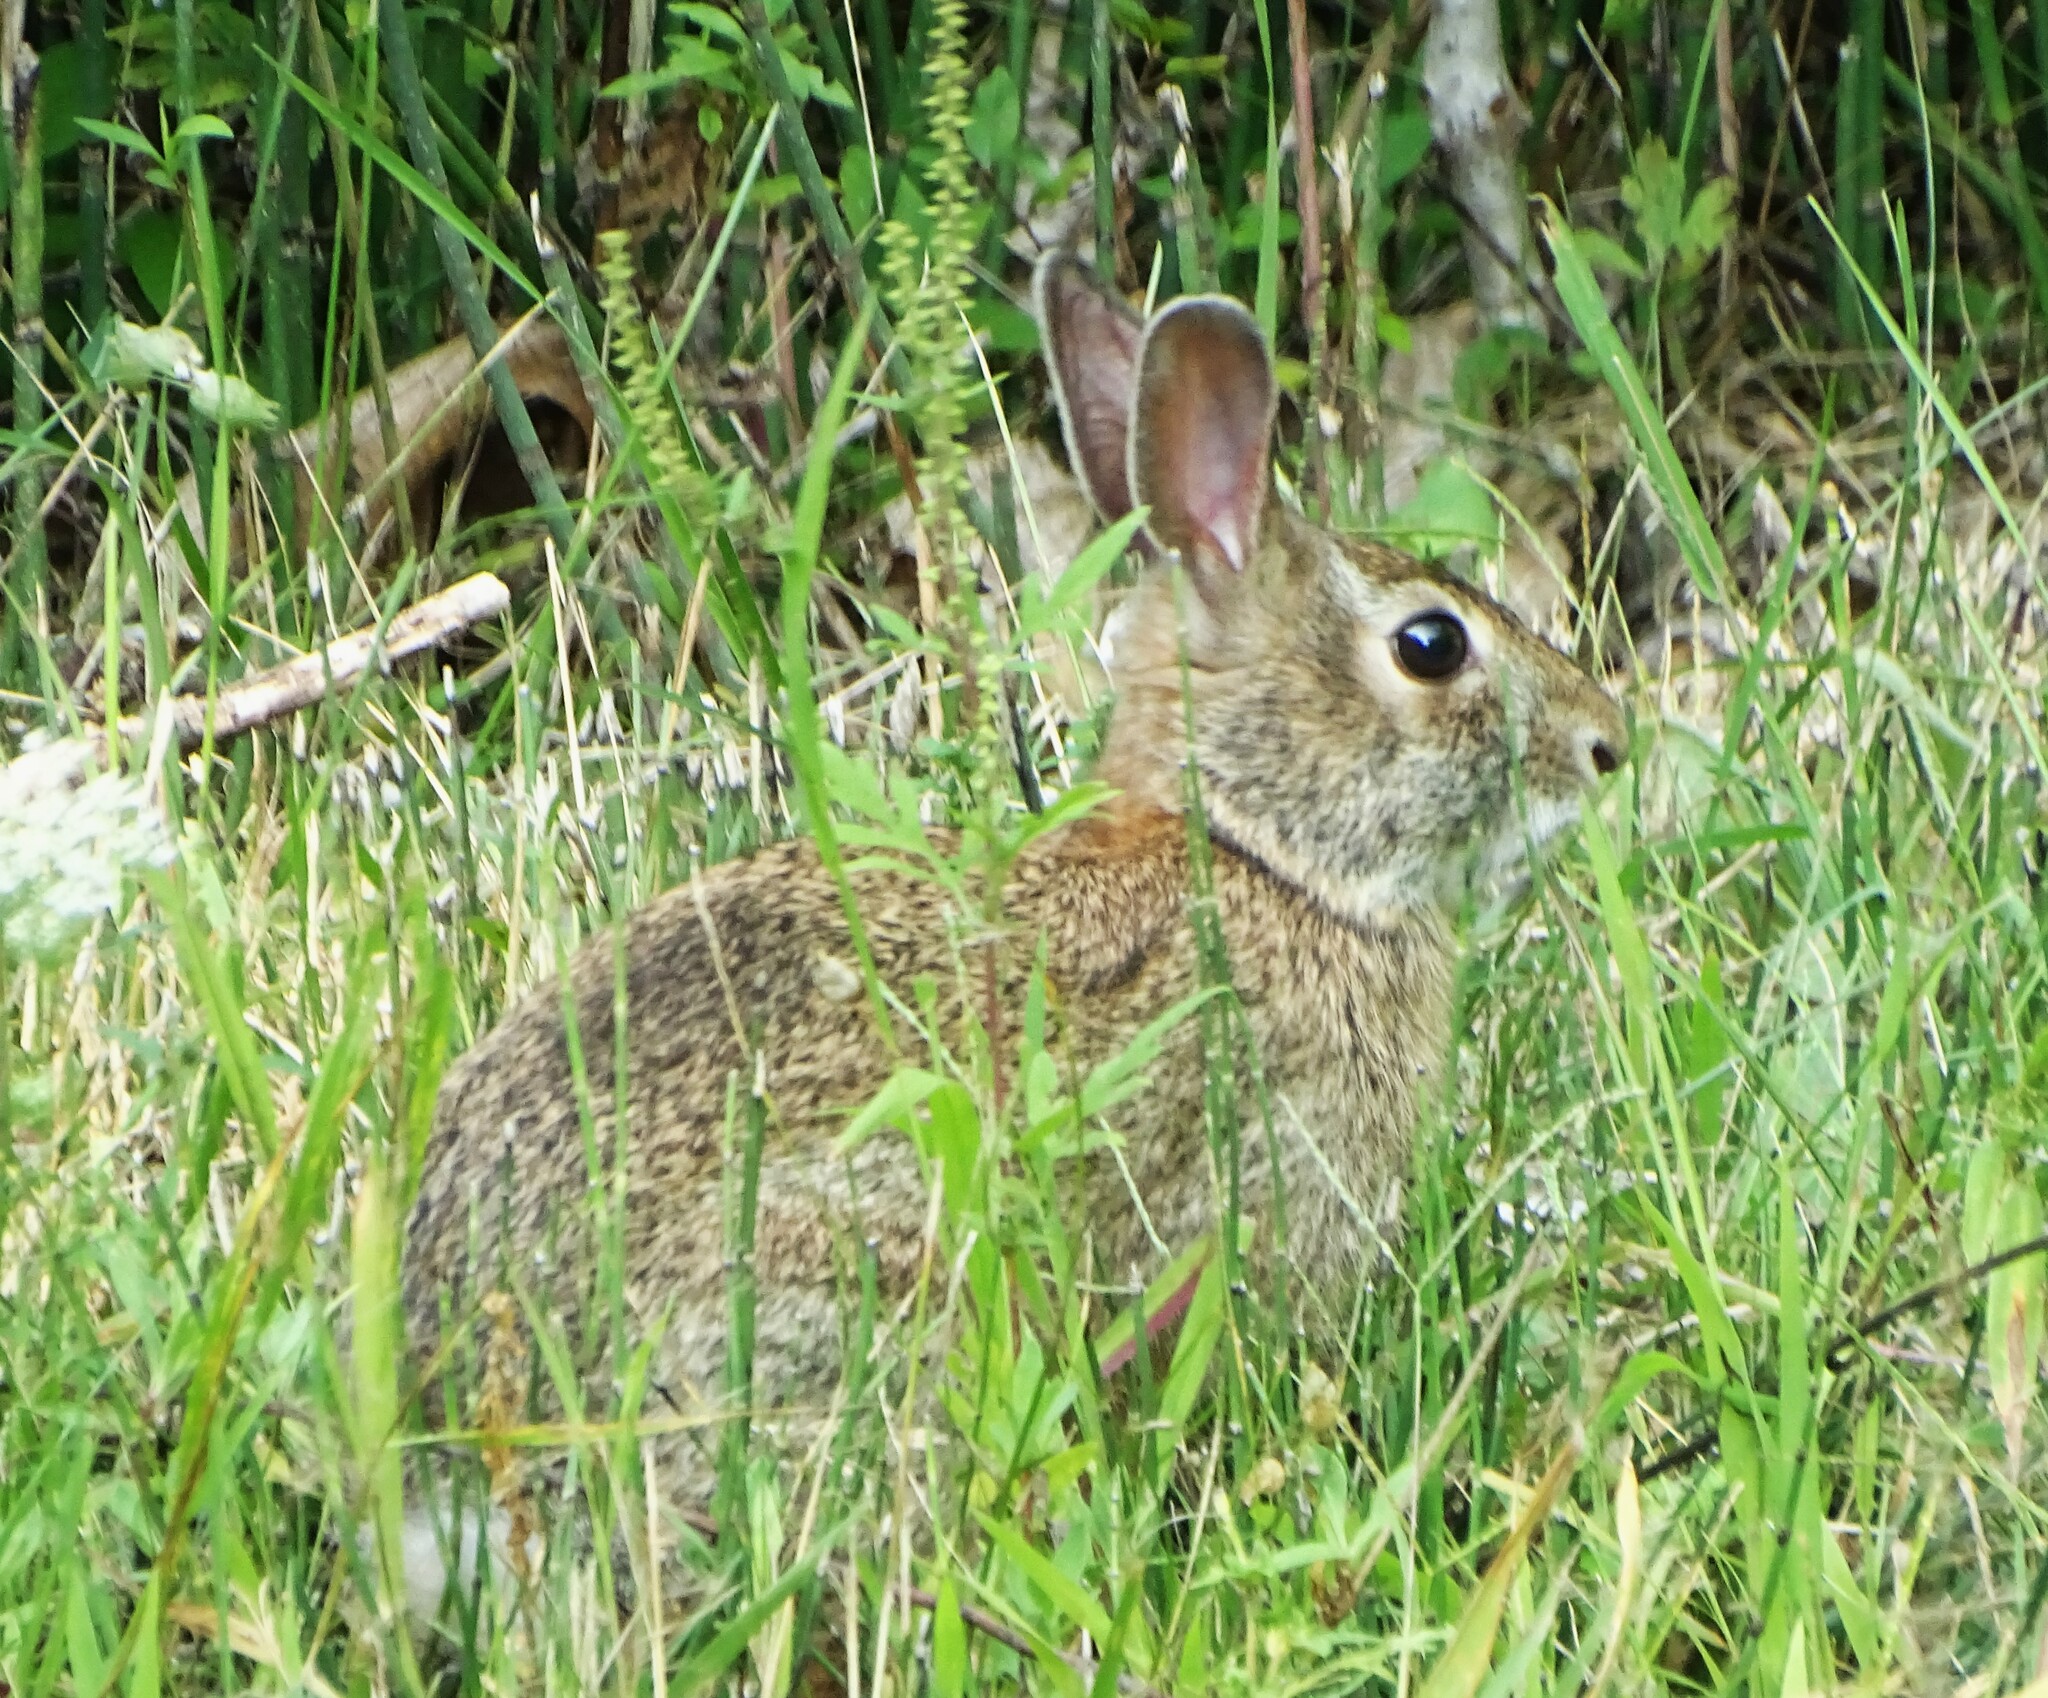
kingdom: Animalia
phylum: Chordata
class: Mammalia
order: Lagomorpha
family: Leporidae
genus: Sylvilagus
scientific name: Sylvilagus floridanus
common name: Eastern cottontail
